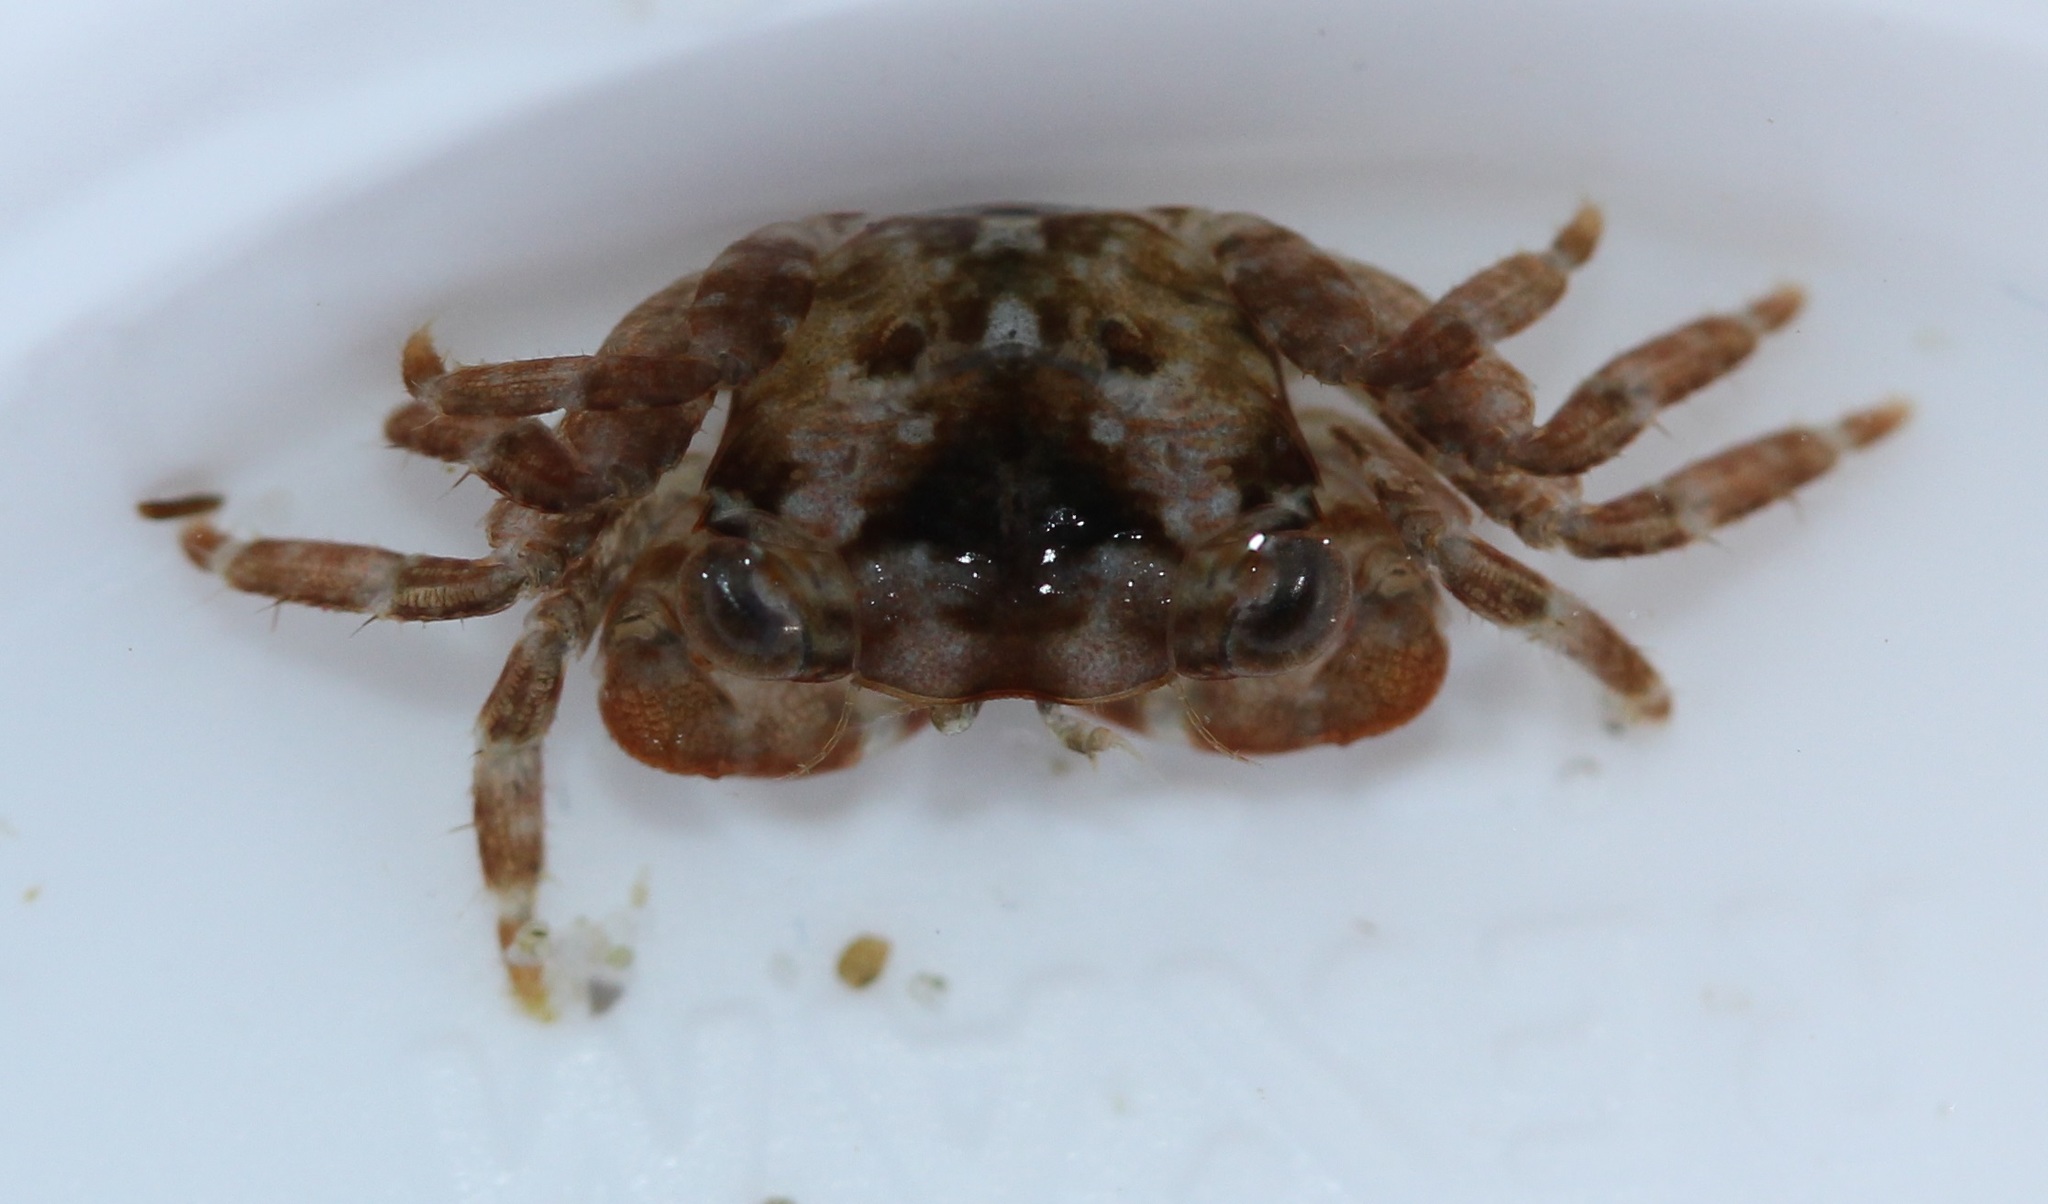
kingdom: Animalia
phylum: Arthropoda
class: Malacostraca
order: Decapoda
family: Grapsidae
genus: Pachygrapsus
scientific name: Pachygrapsus crassipes
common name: Striped shore crab
